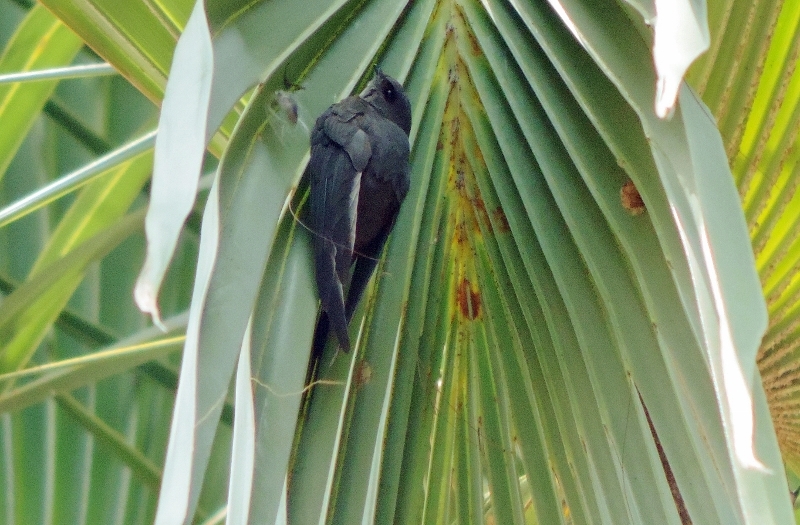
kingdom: Animalia
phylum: Chordata
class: Aves
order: Apodiformes
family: Apodidae
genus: Cypsiurus
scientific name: Cypsiurus parvus
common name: African palm swift
